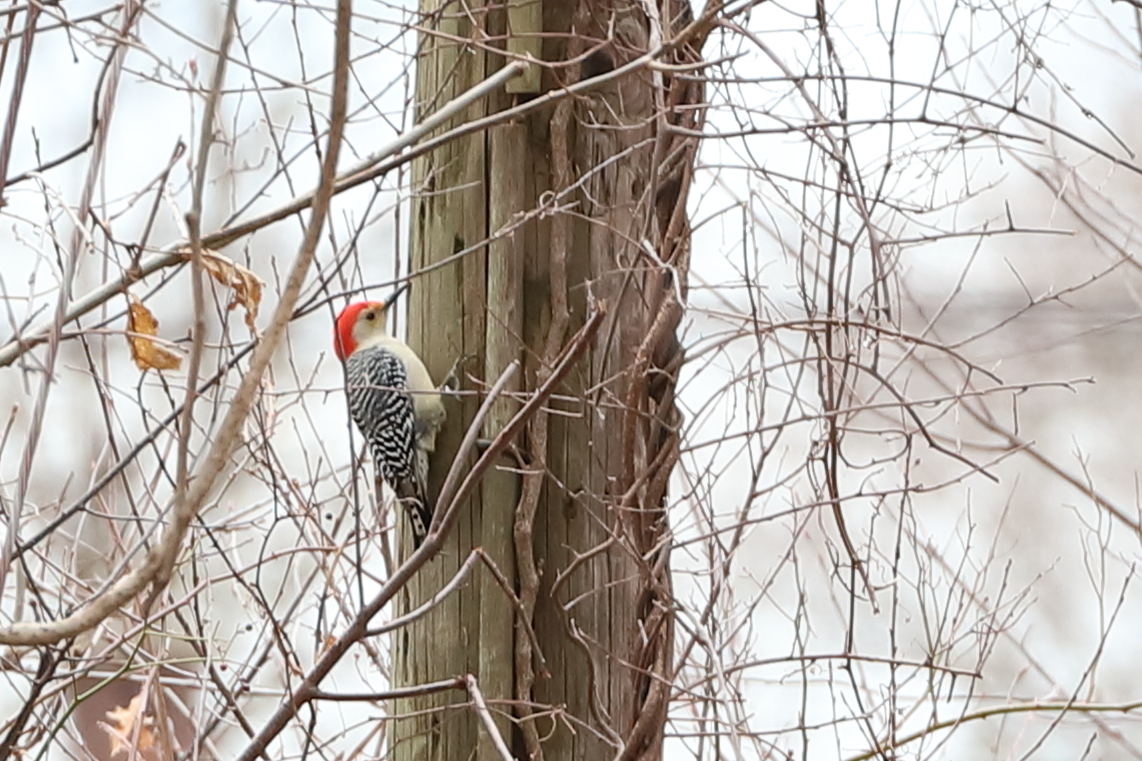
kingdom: Animalia
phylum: Chordata
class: Aves
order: Piciformes
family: Picidae
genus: Melanerpes
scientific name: Melanerpes carolinus
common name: Red-bellied woodpecker
